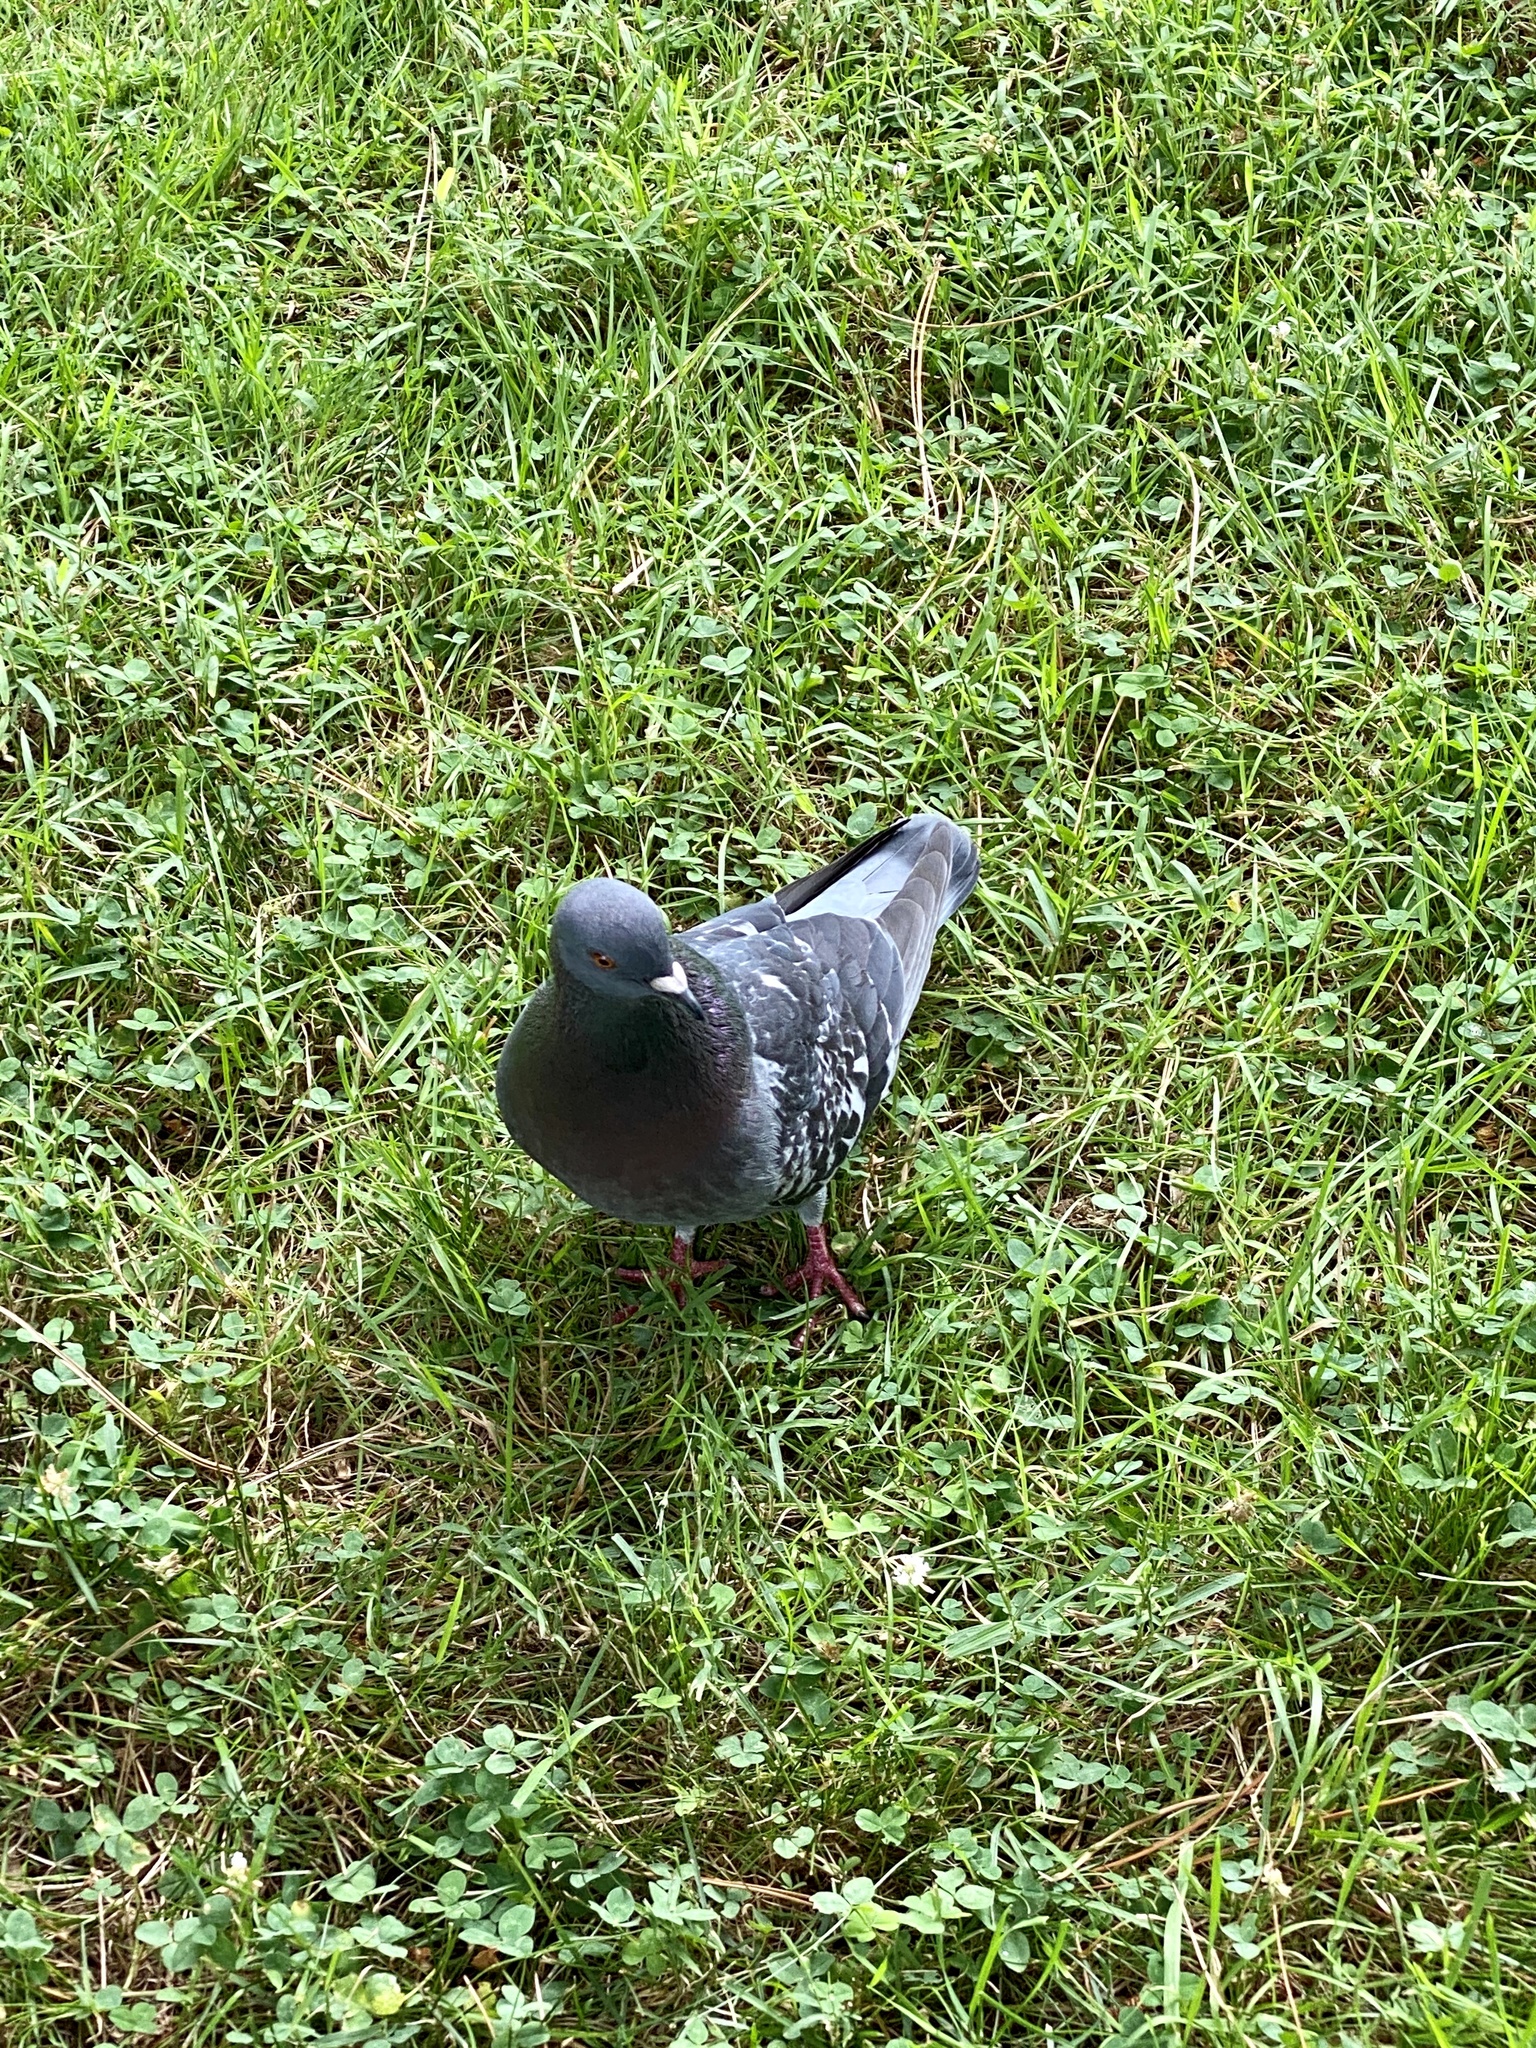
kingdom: Animalia
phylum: Chordata
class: Aves
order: Columbiformes
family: Columbidae
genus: Columba
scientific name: Columba livia
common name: Rock pigeon
